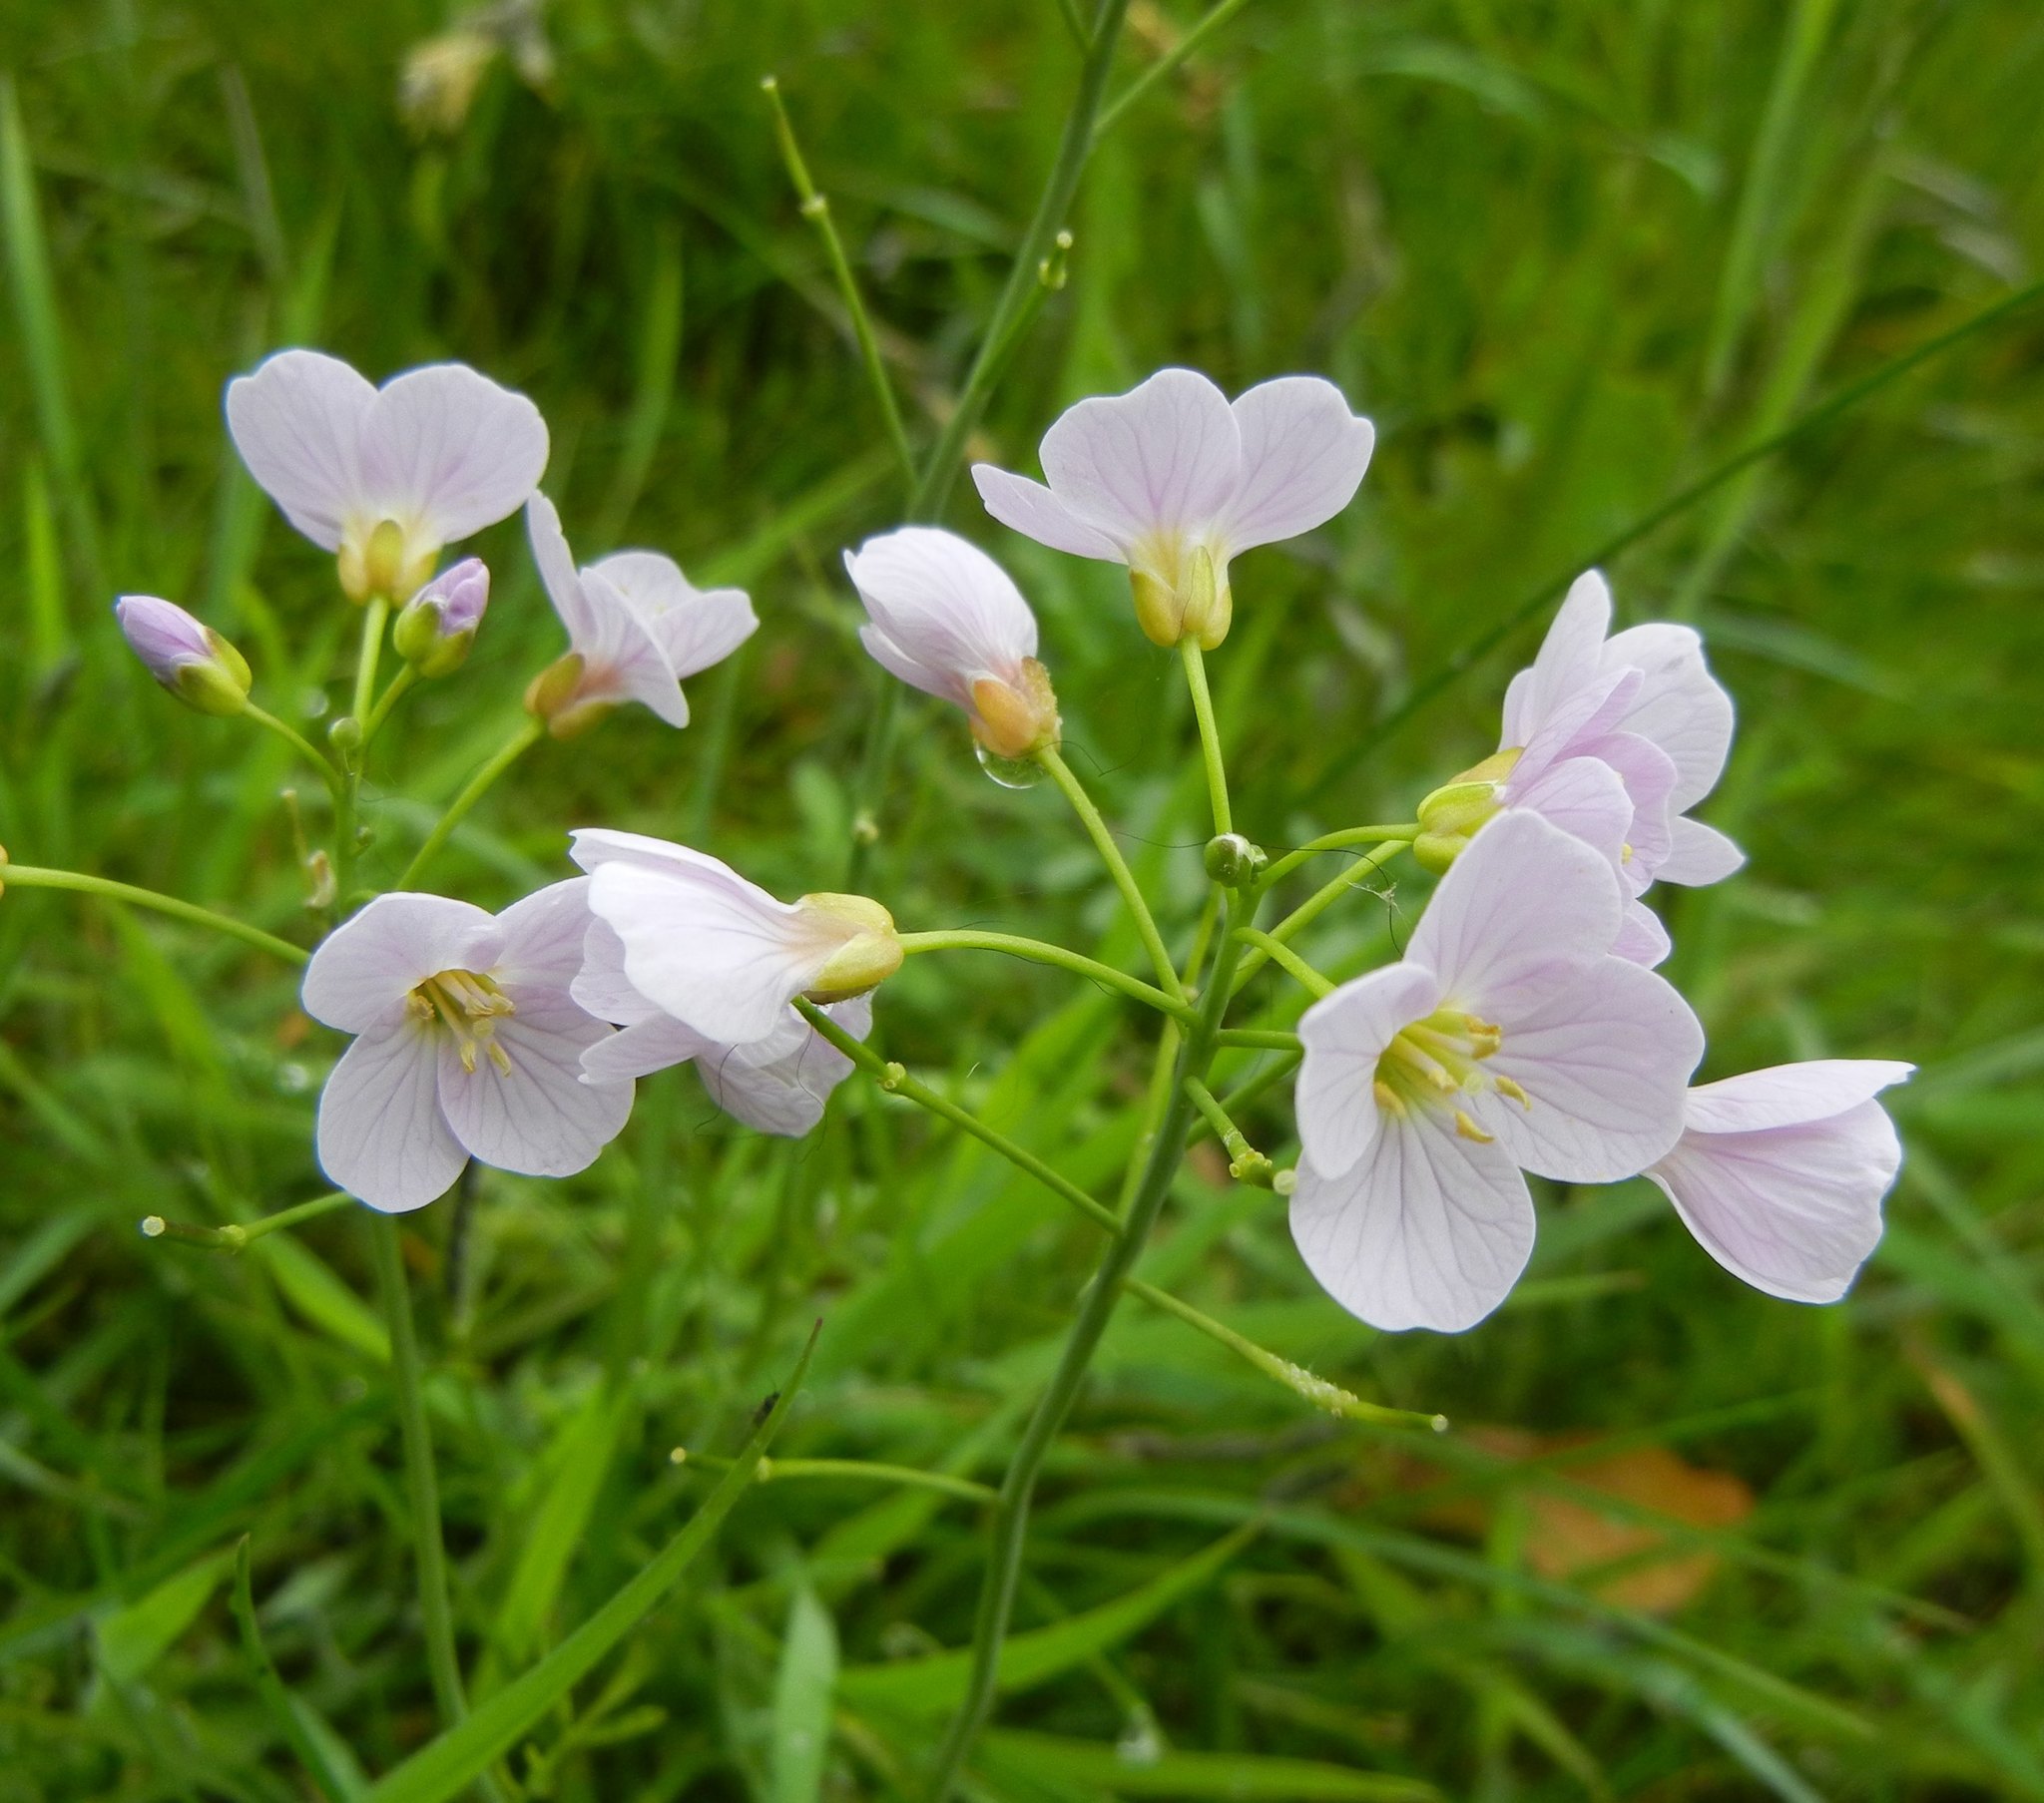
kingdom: Plantae
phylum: Tracheophyta
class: Magnoliopsida
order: Brassicales
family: Brassicaceae
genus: Cardamine
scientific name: Cardamine pratensis
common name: Cuckoo flower
